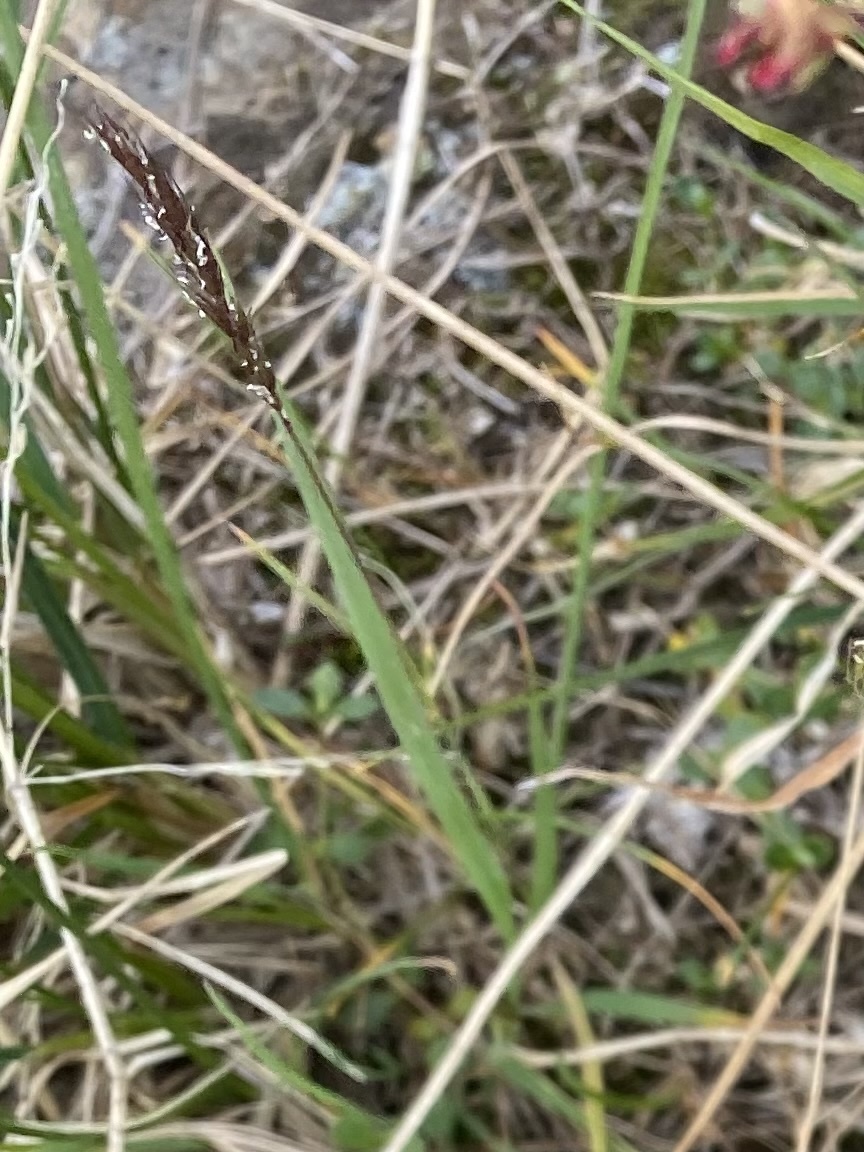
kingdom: Plantae
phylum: Tracheophyta
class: Liliopsida
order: Poales
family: Poaceae
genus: Koeleria
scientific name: Koeleria spicata
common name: Mountain trisetum
